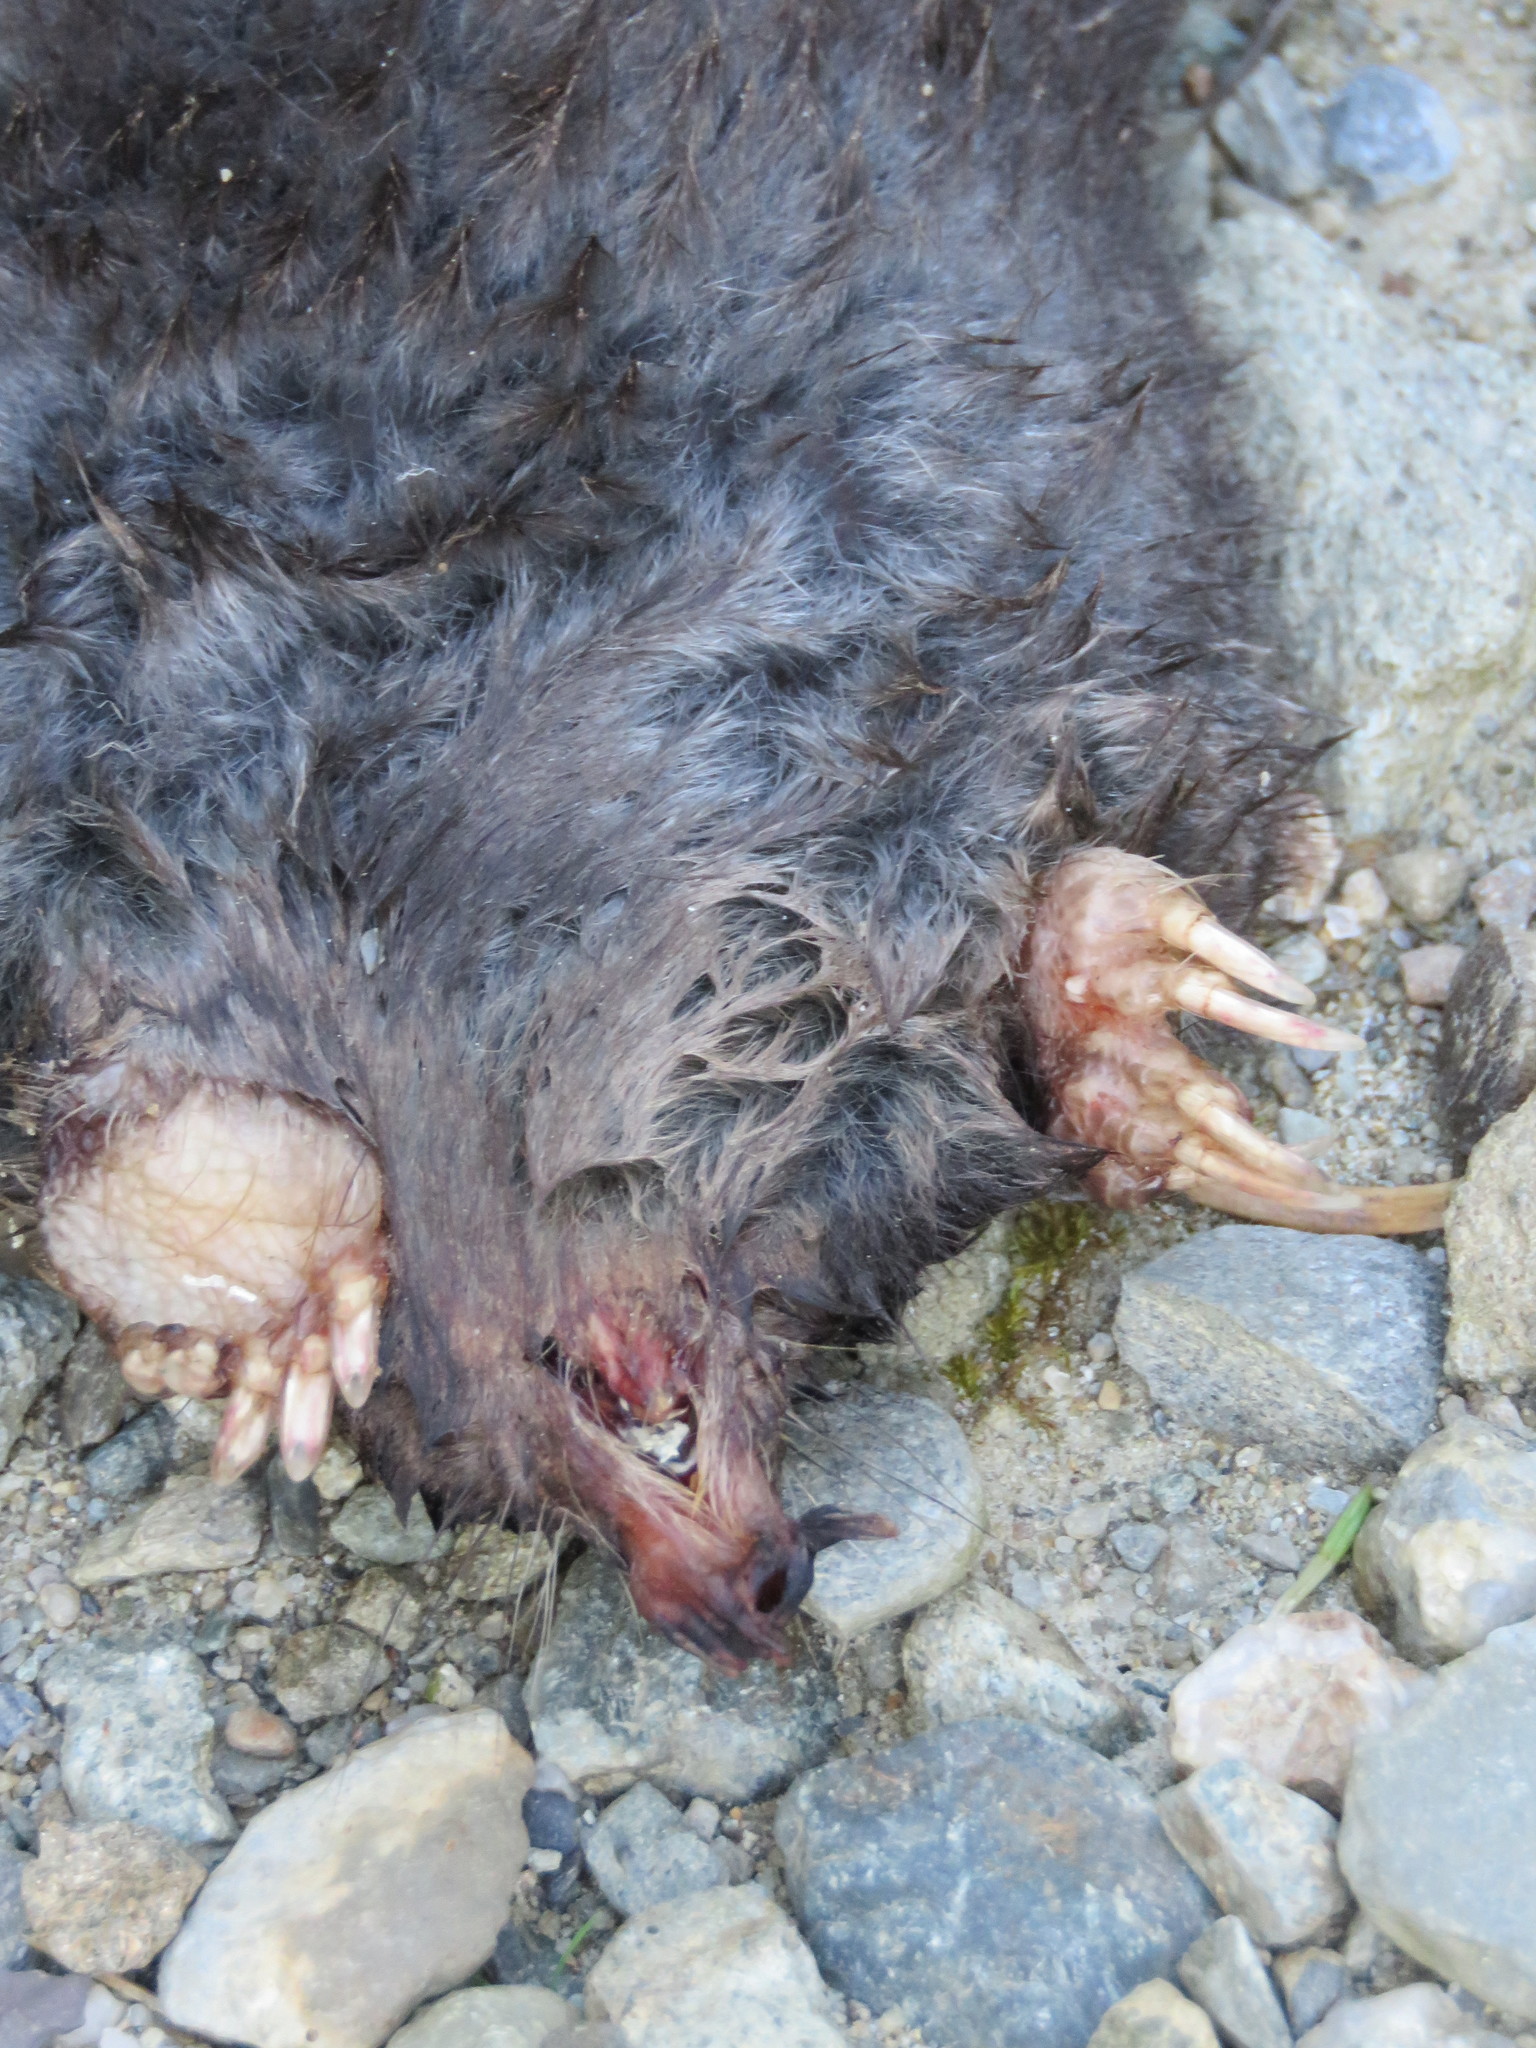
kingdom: Animalia
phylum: Chordata
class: Mammalia
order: Soricomorpha
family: Talpidae
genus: Condylura
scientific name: Condylura cristata
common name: Star-nosed mole
